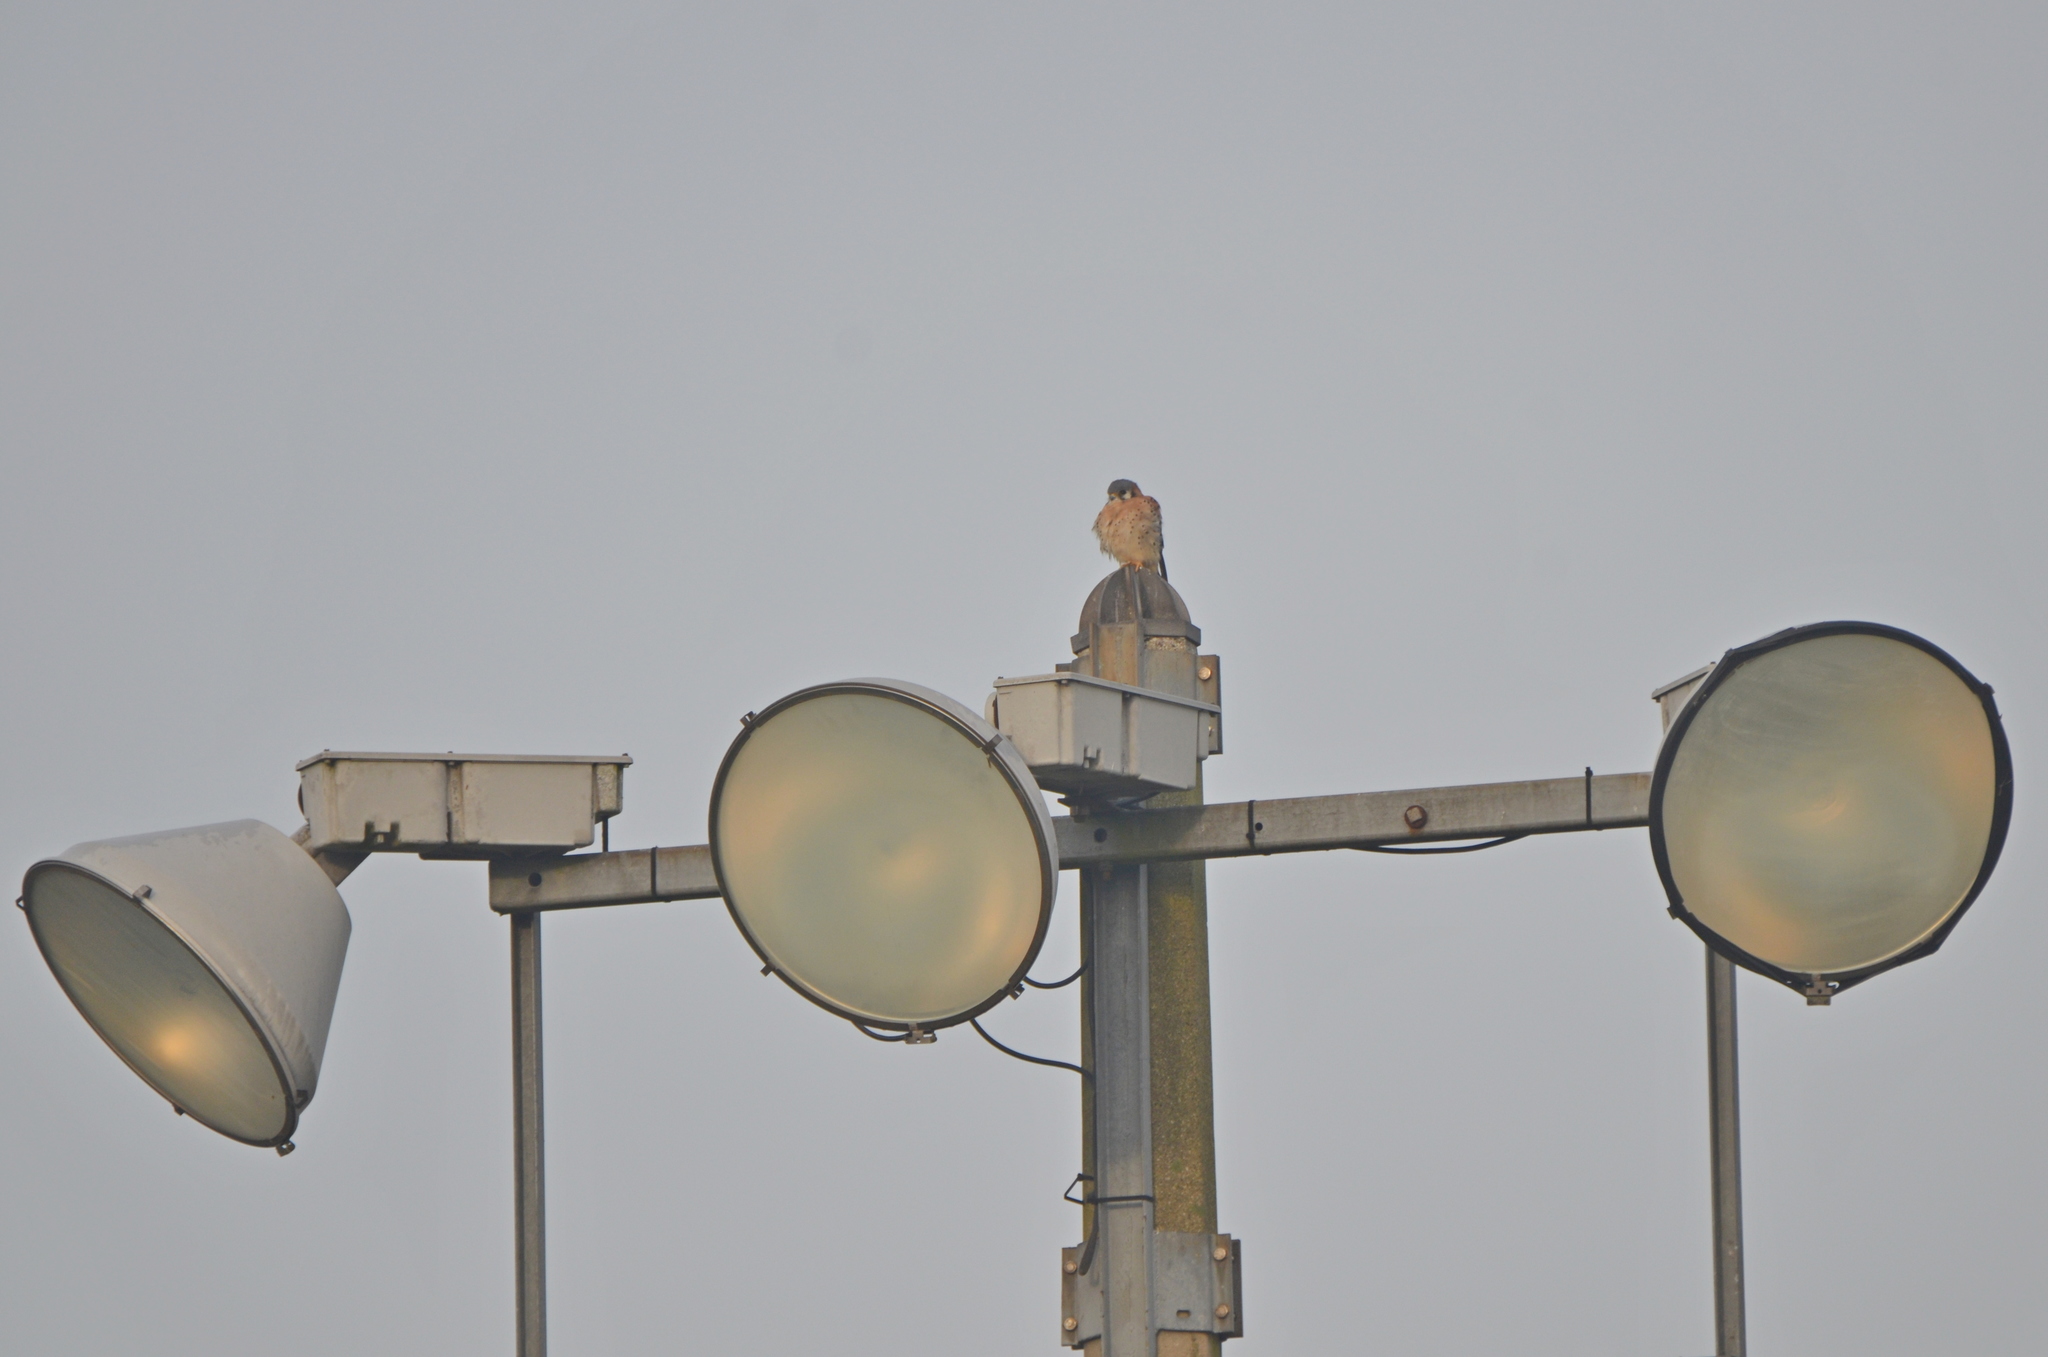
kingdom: Animalia
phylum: Chordata
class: Aves
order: Falconiformes
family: Falconidae
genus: Falco
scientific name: Falco sparverius
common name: American kestrel
